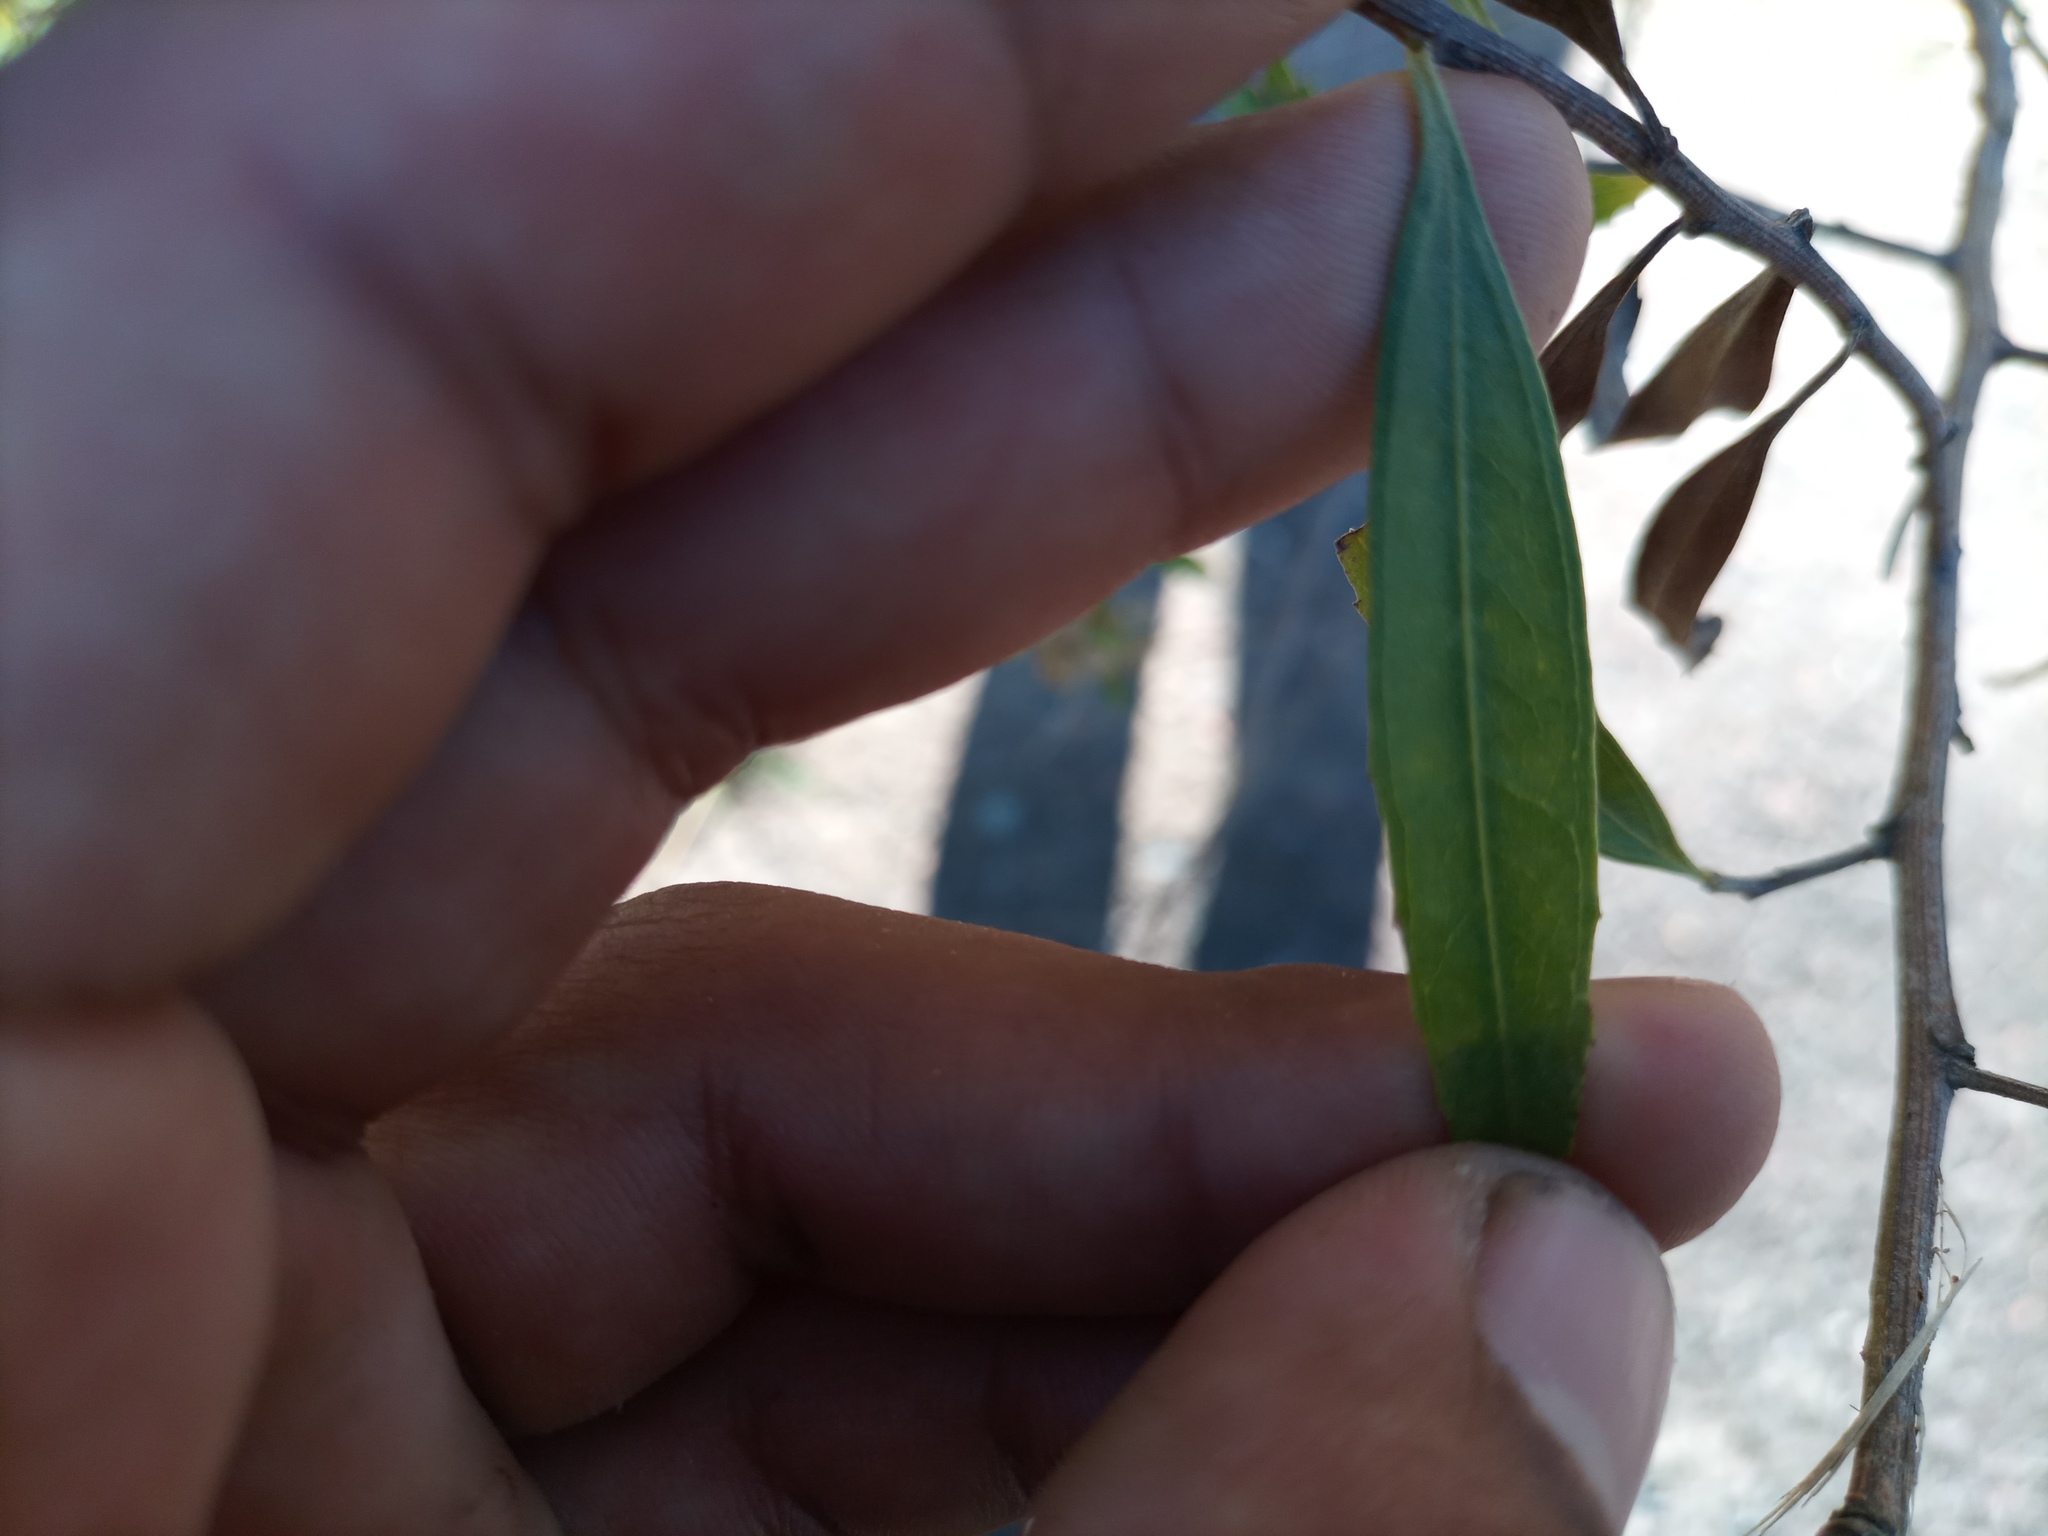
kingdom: Plantae
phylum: Tracheophyta
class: Magnoliopsida
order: Asterales
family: Asteraceae
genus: Baccharis
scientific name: Baccharis salicifolia
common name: Sticky baccharis
